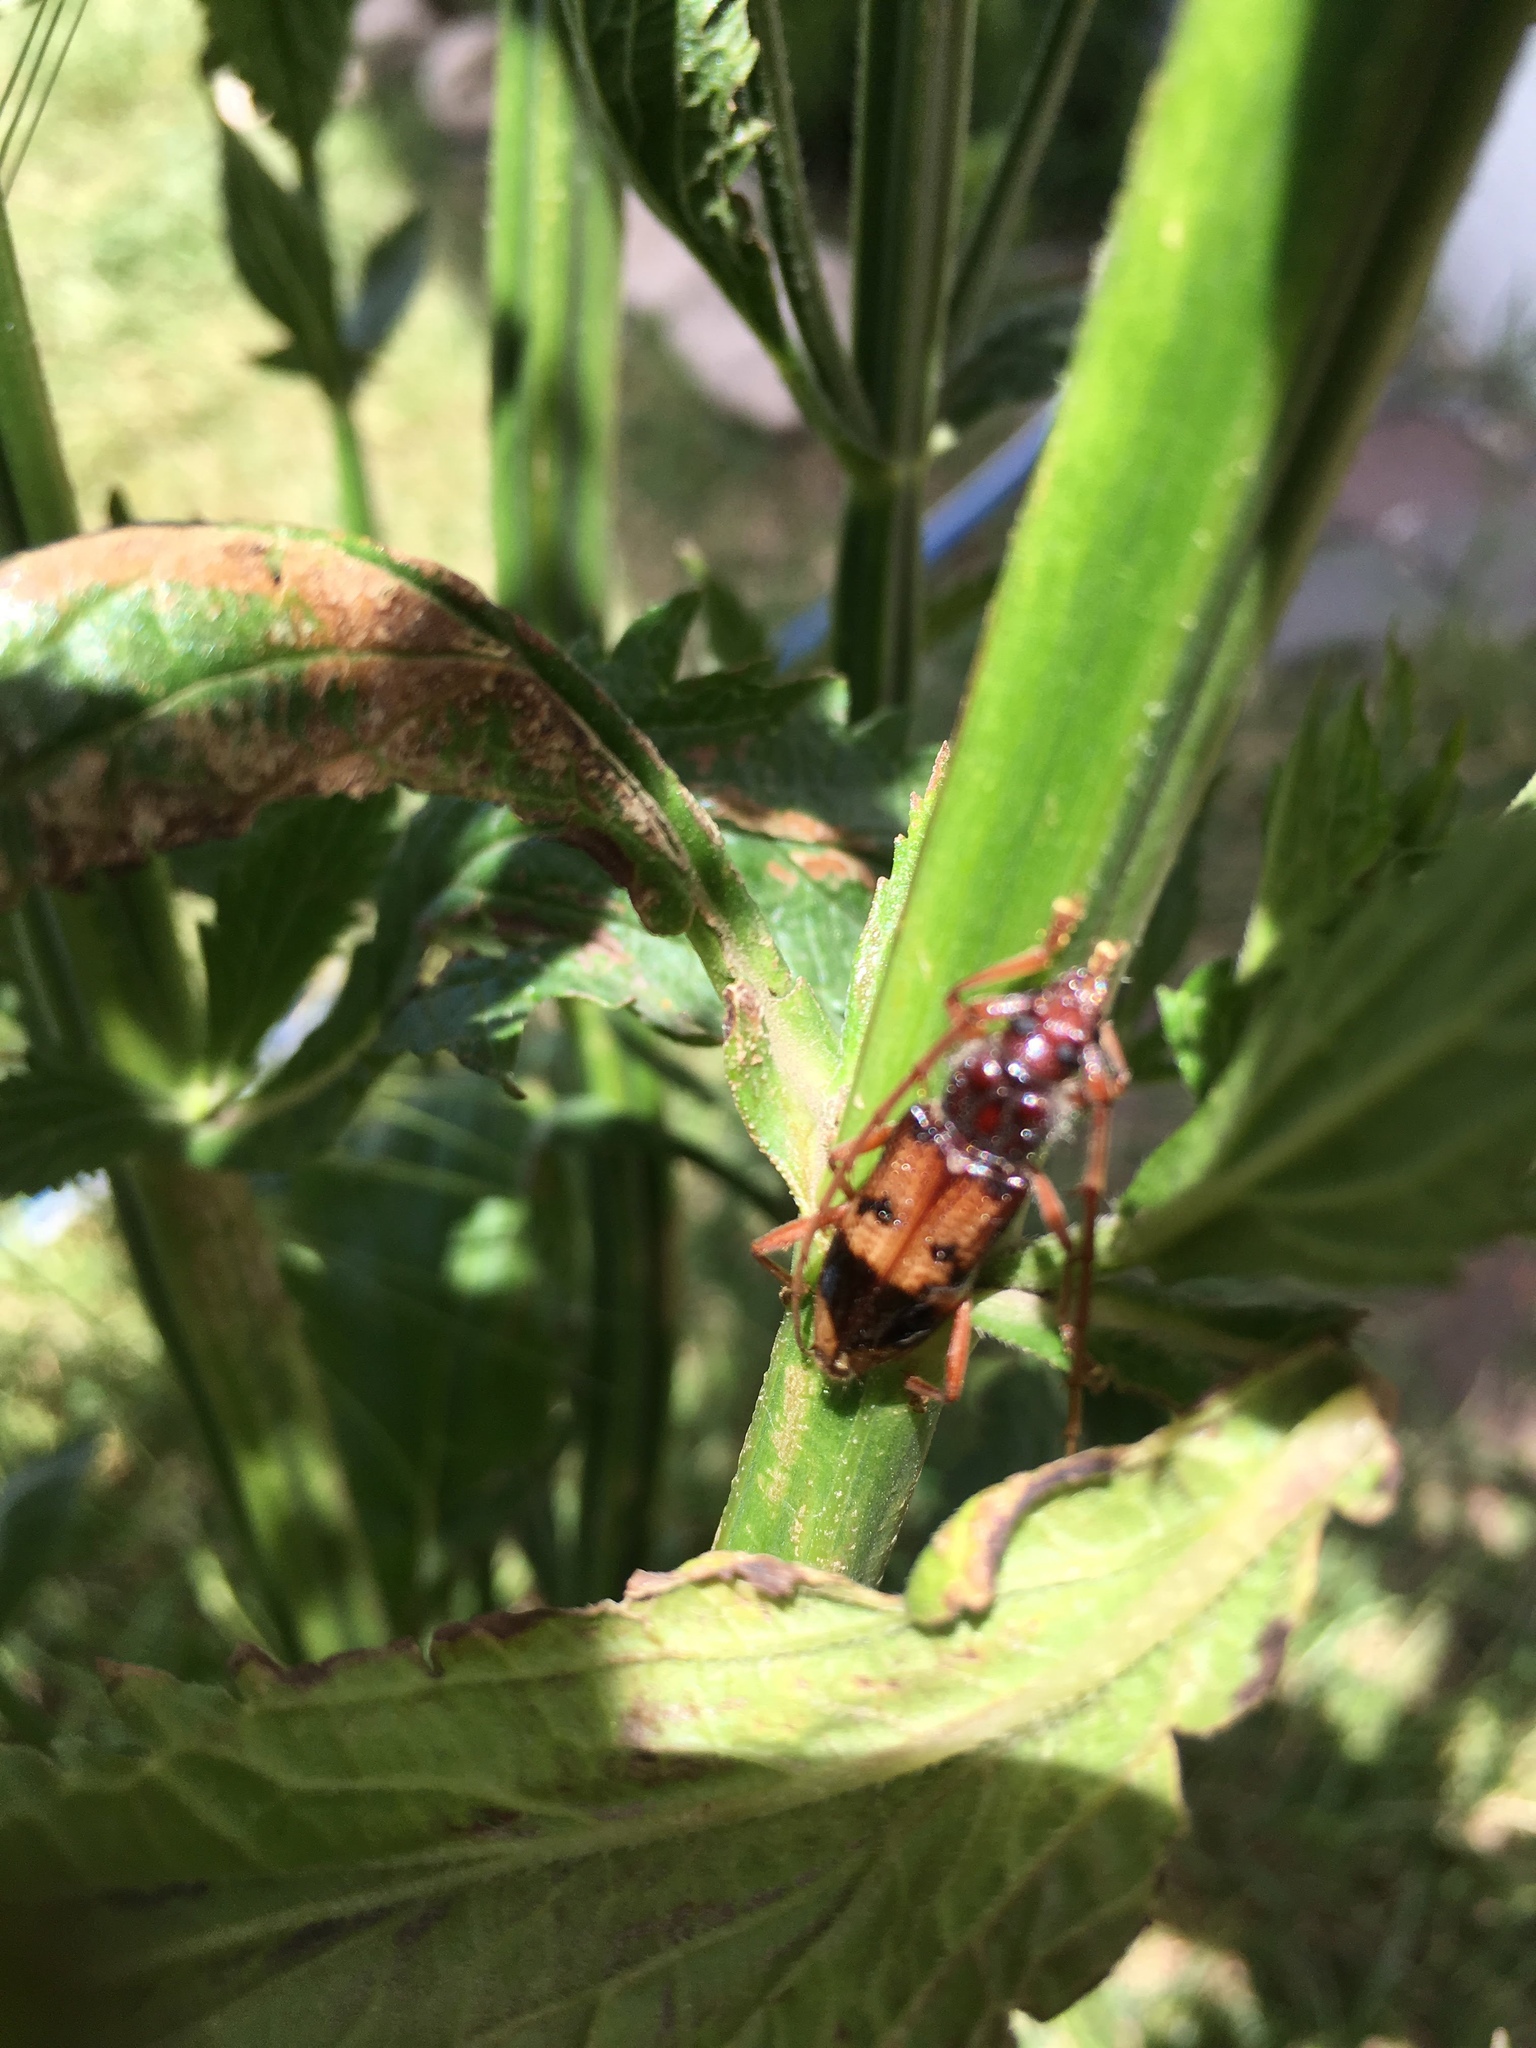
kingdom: Animalia
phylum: Arthropoda
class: Insecta
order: Coleoptera
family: Cerambycidae
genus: Phoracantha
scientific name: Phoracantha recurva
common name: Eucalyptus longhorned borer
